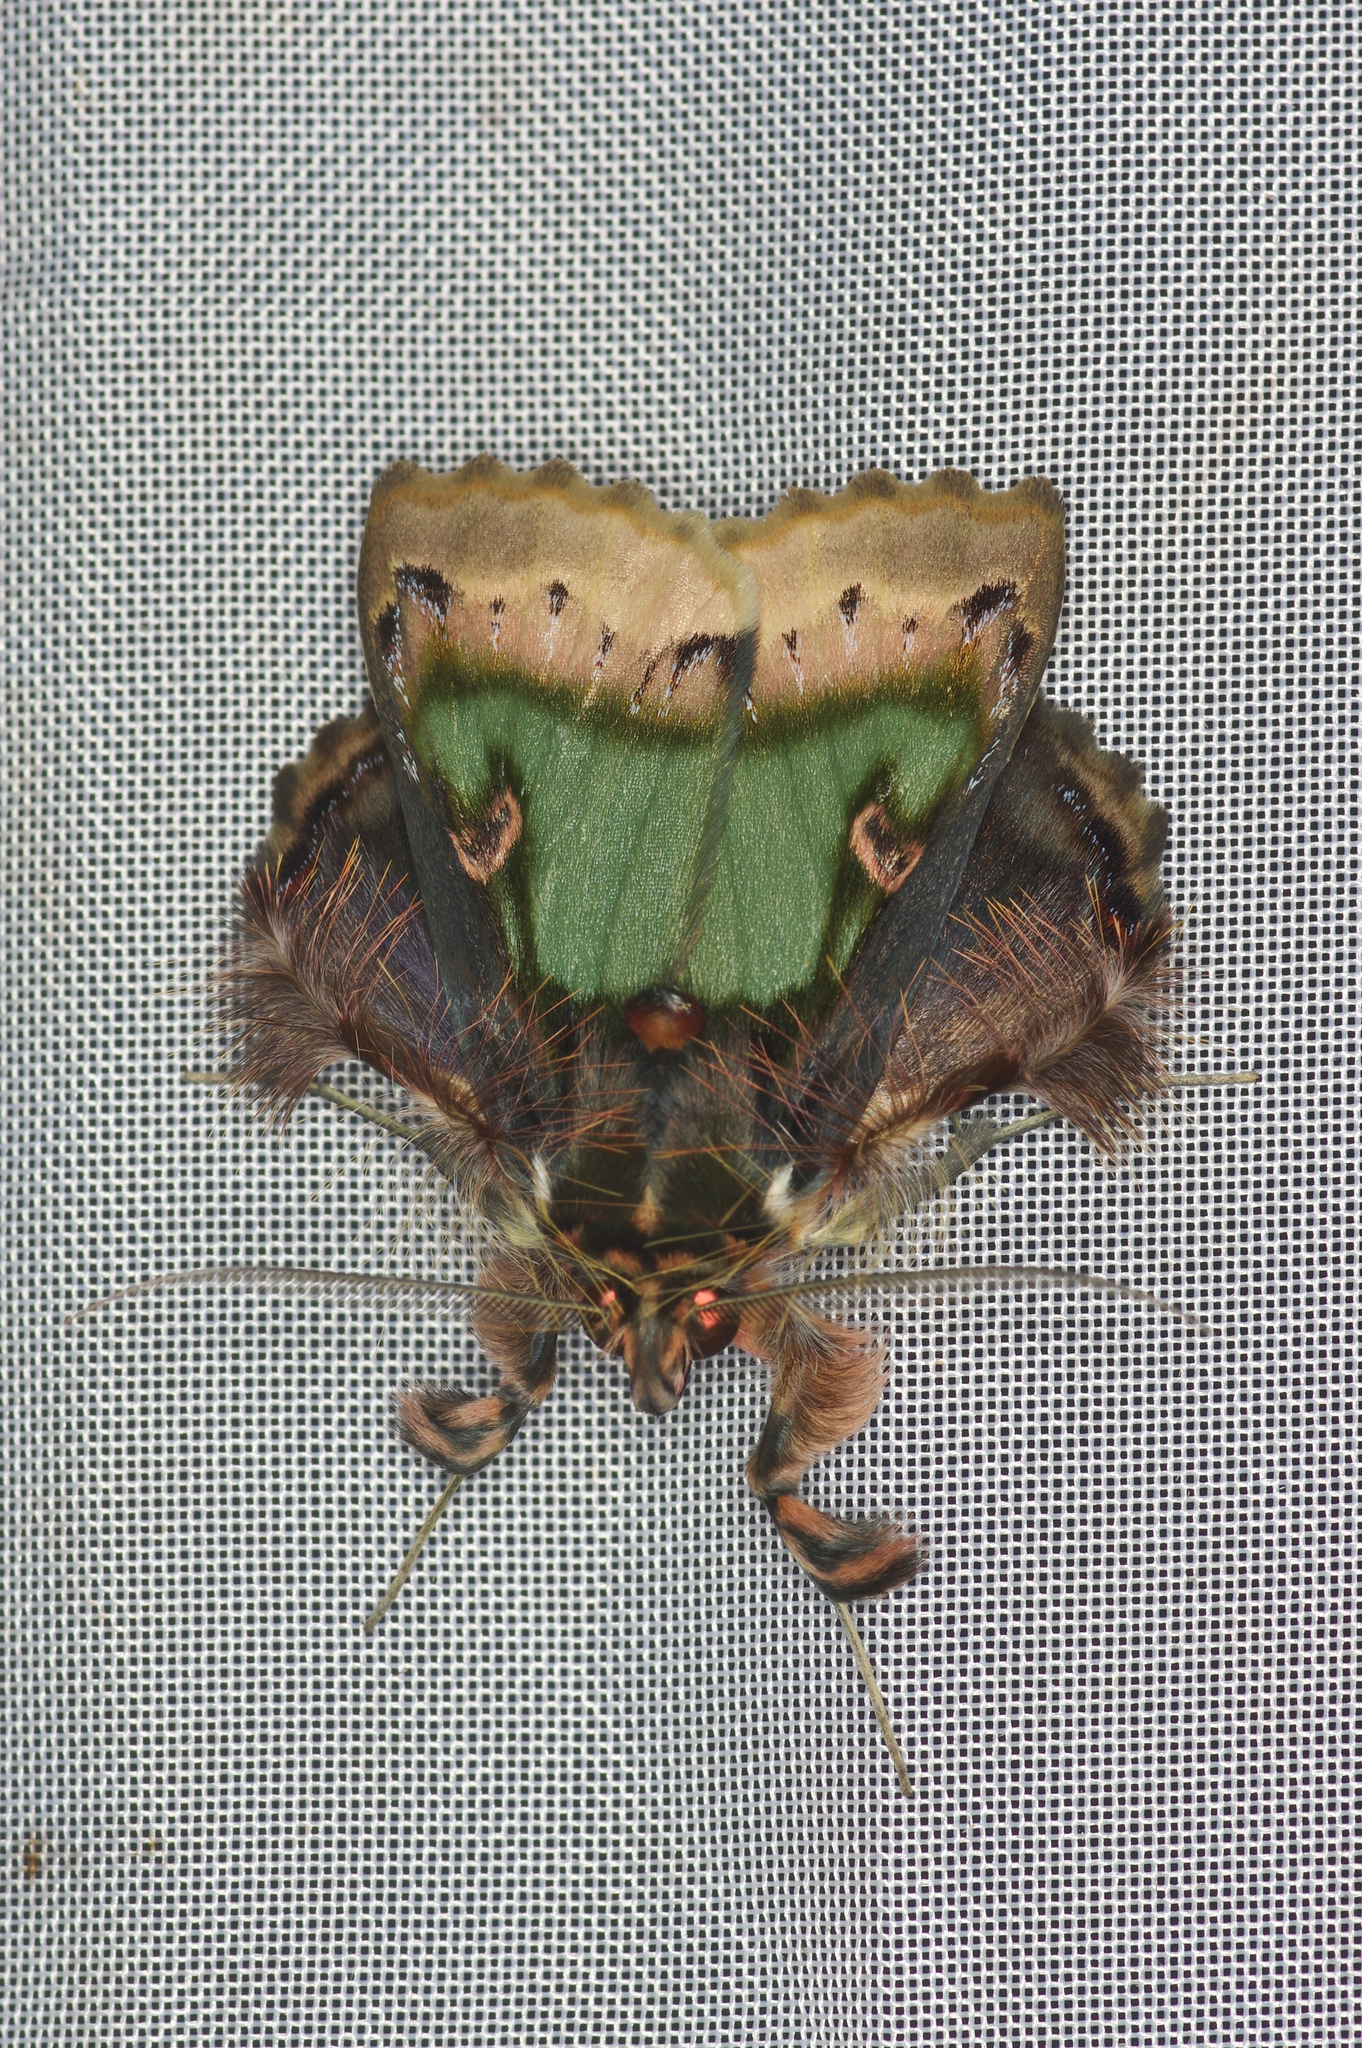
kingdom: Animalia
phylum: Arthropoda
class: Insecta
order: Lepidoptera
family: Erebidae
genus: Ceroctena
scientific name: Ceroctena amynta
